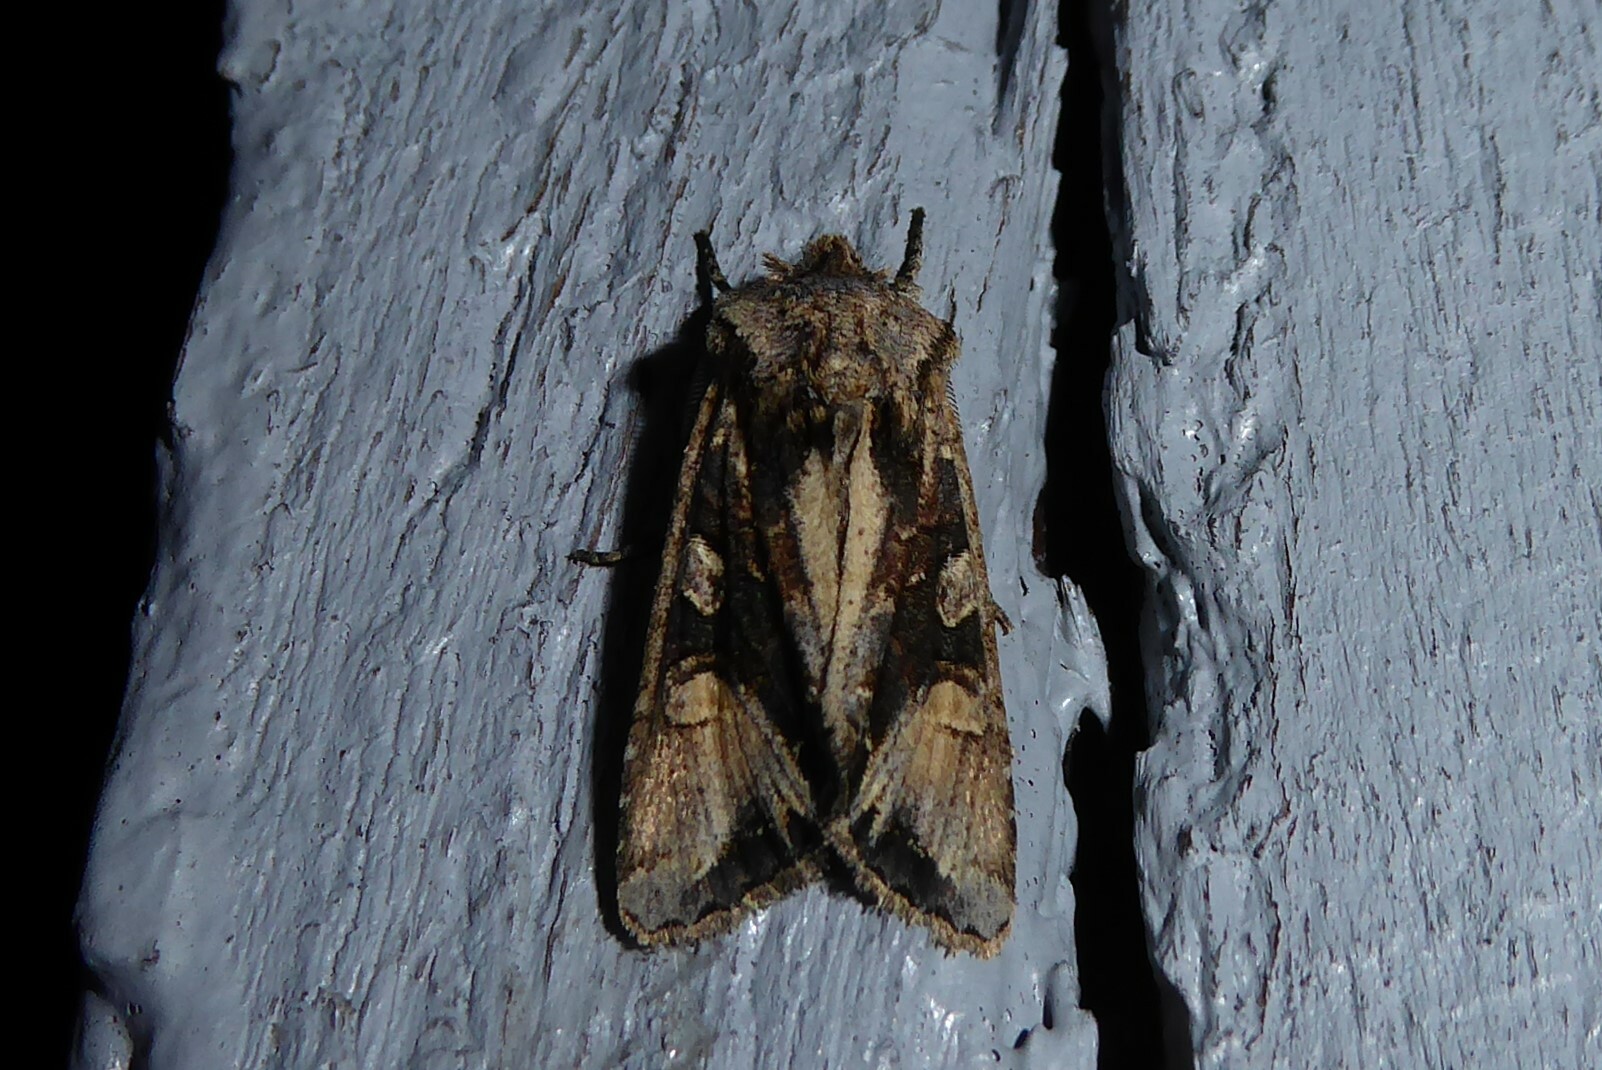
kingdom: Animalia
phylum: Arthropoda
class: Insecta
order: Lepidoptera
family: Noctuidae
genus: Ichneutica
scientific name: Ichneutica
